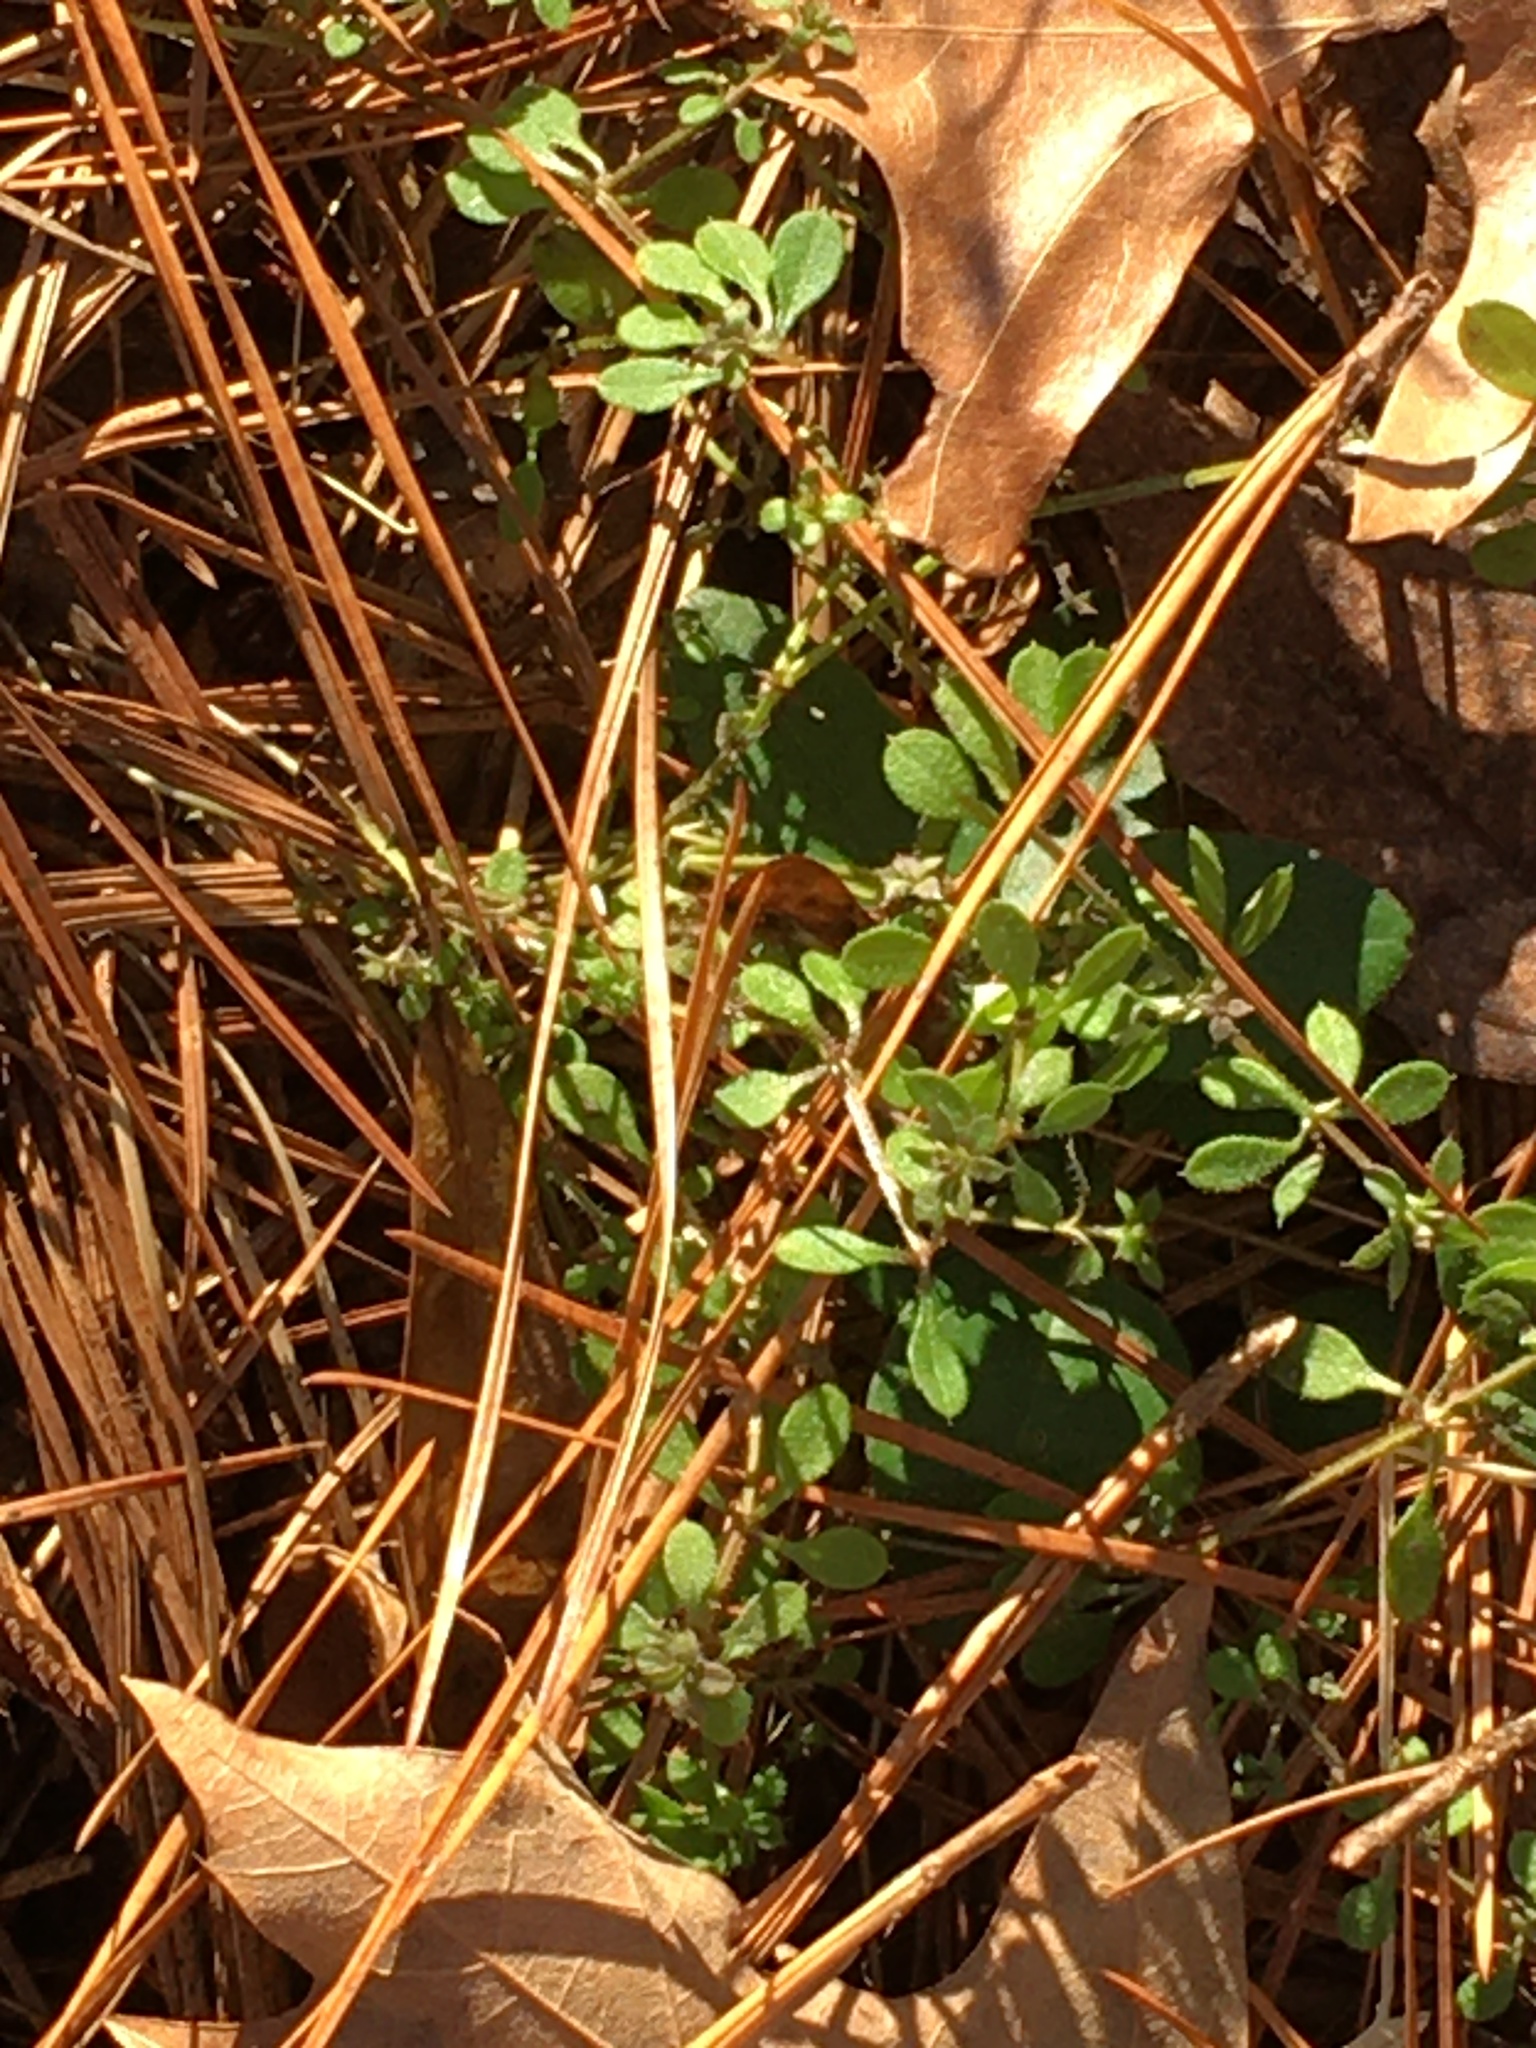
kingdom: Plantae
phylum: Tracheophyta
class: Magnoliopsida
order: Gentianales
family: Rubiaceae
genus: Galium
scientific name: Galium aparine
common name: Cleavers
